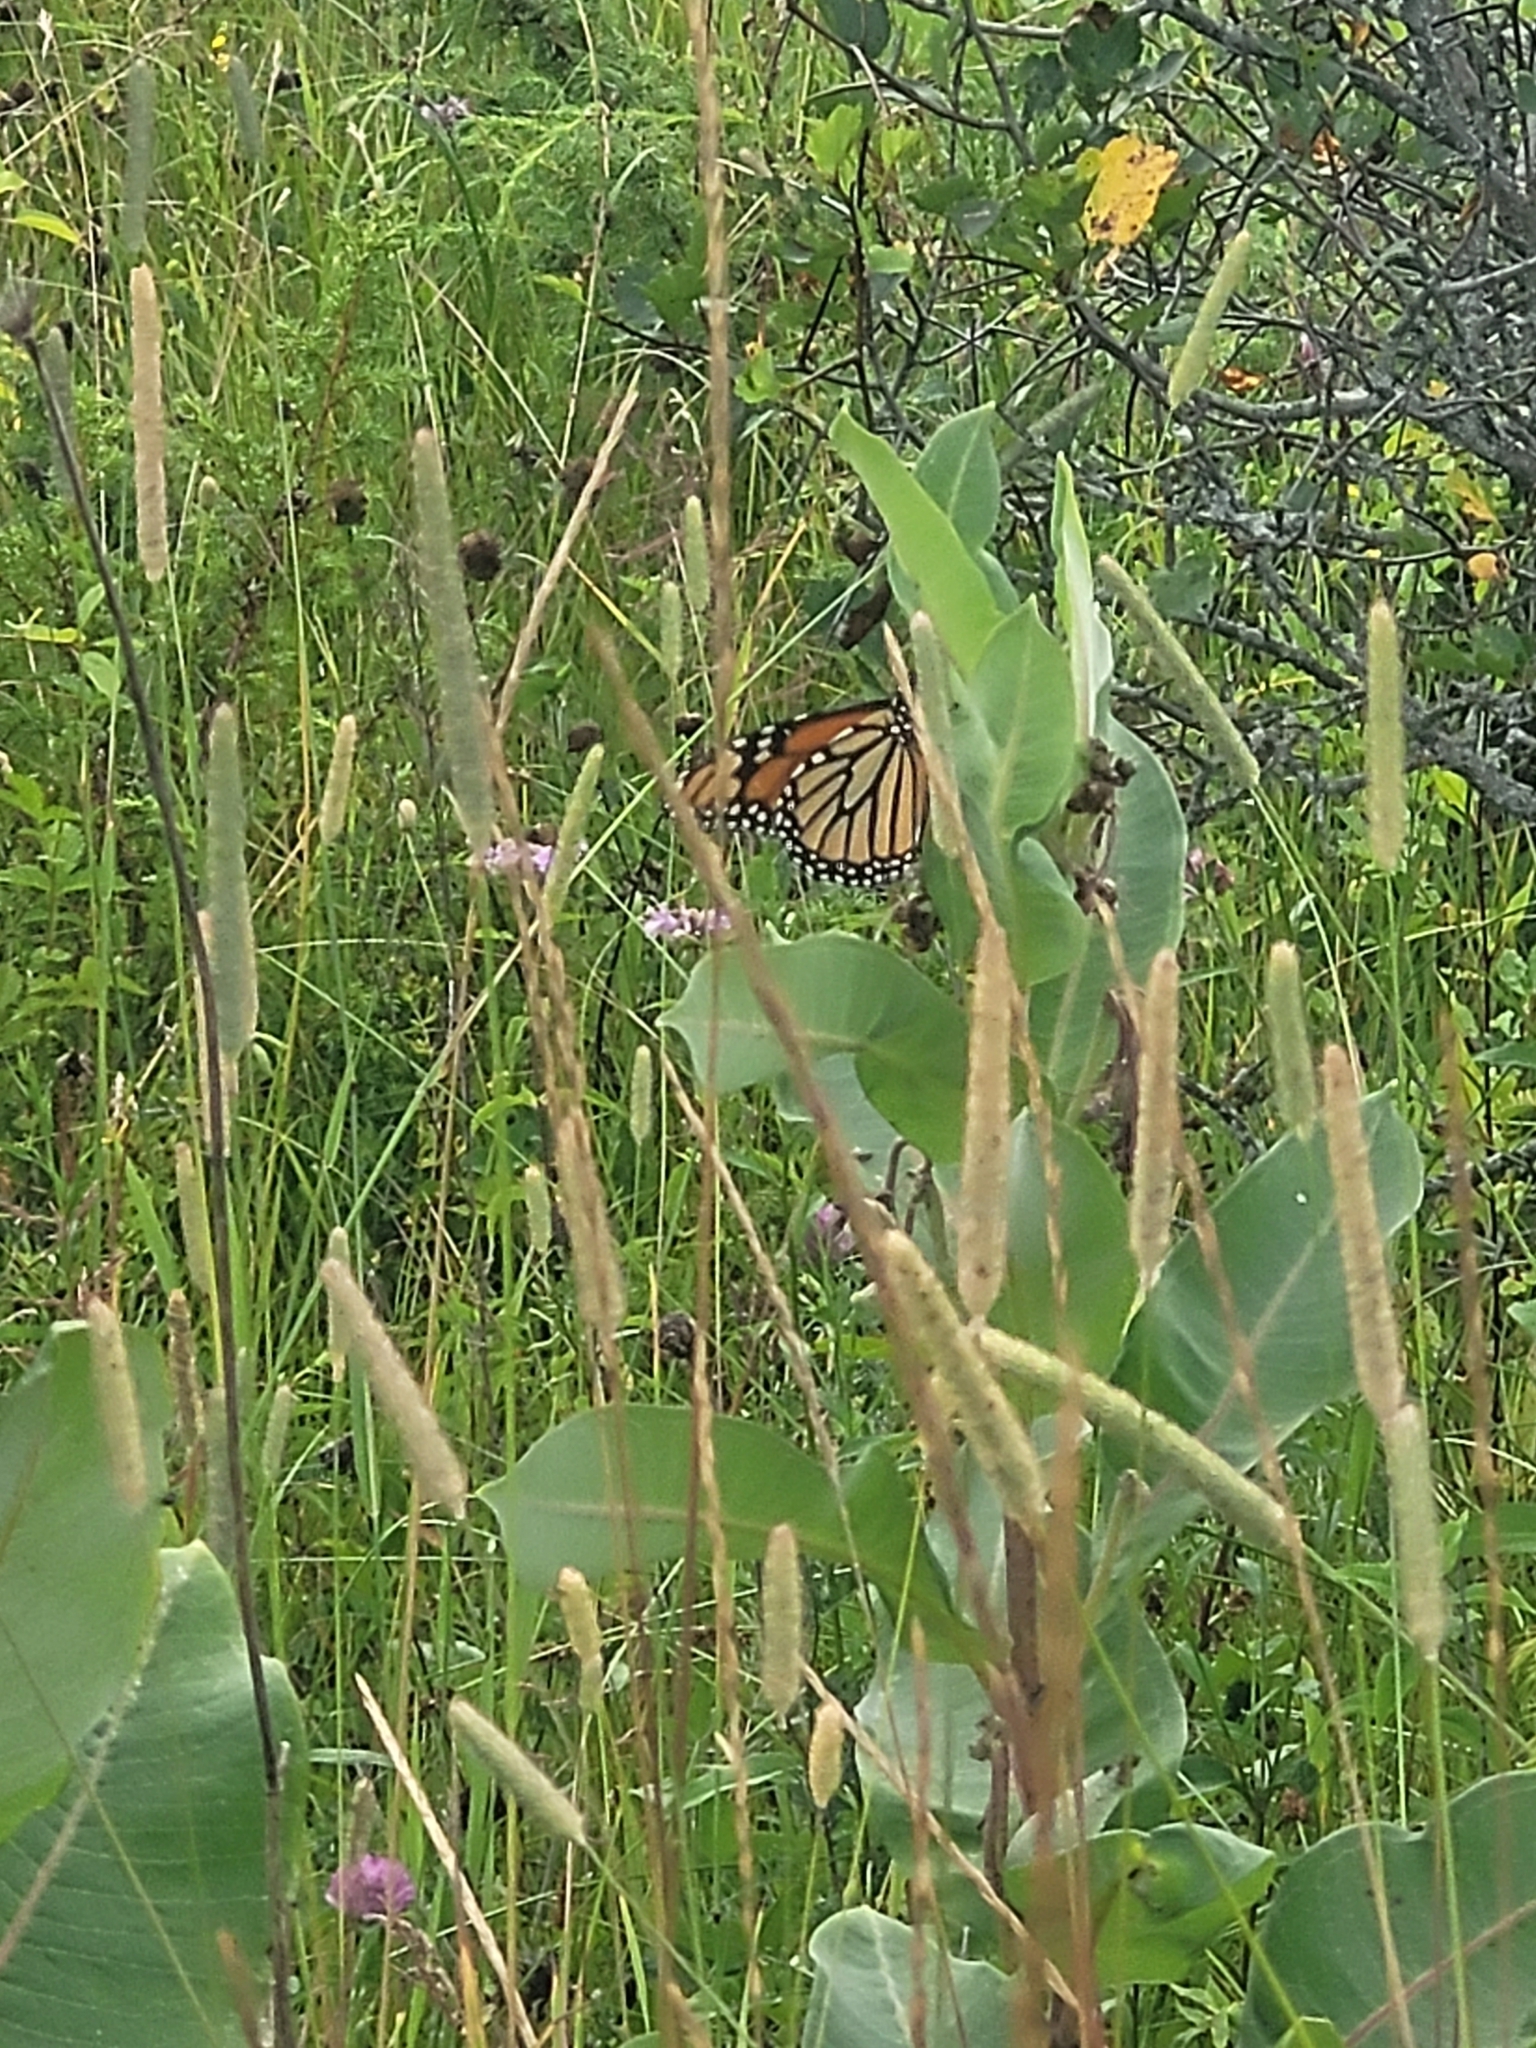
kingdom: Animalia
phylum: Arthropoda
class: Insecta
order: Lepidoptera
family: Nymphalidae
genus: Danaus
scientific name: Danaus plexippus
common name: Monarch
